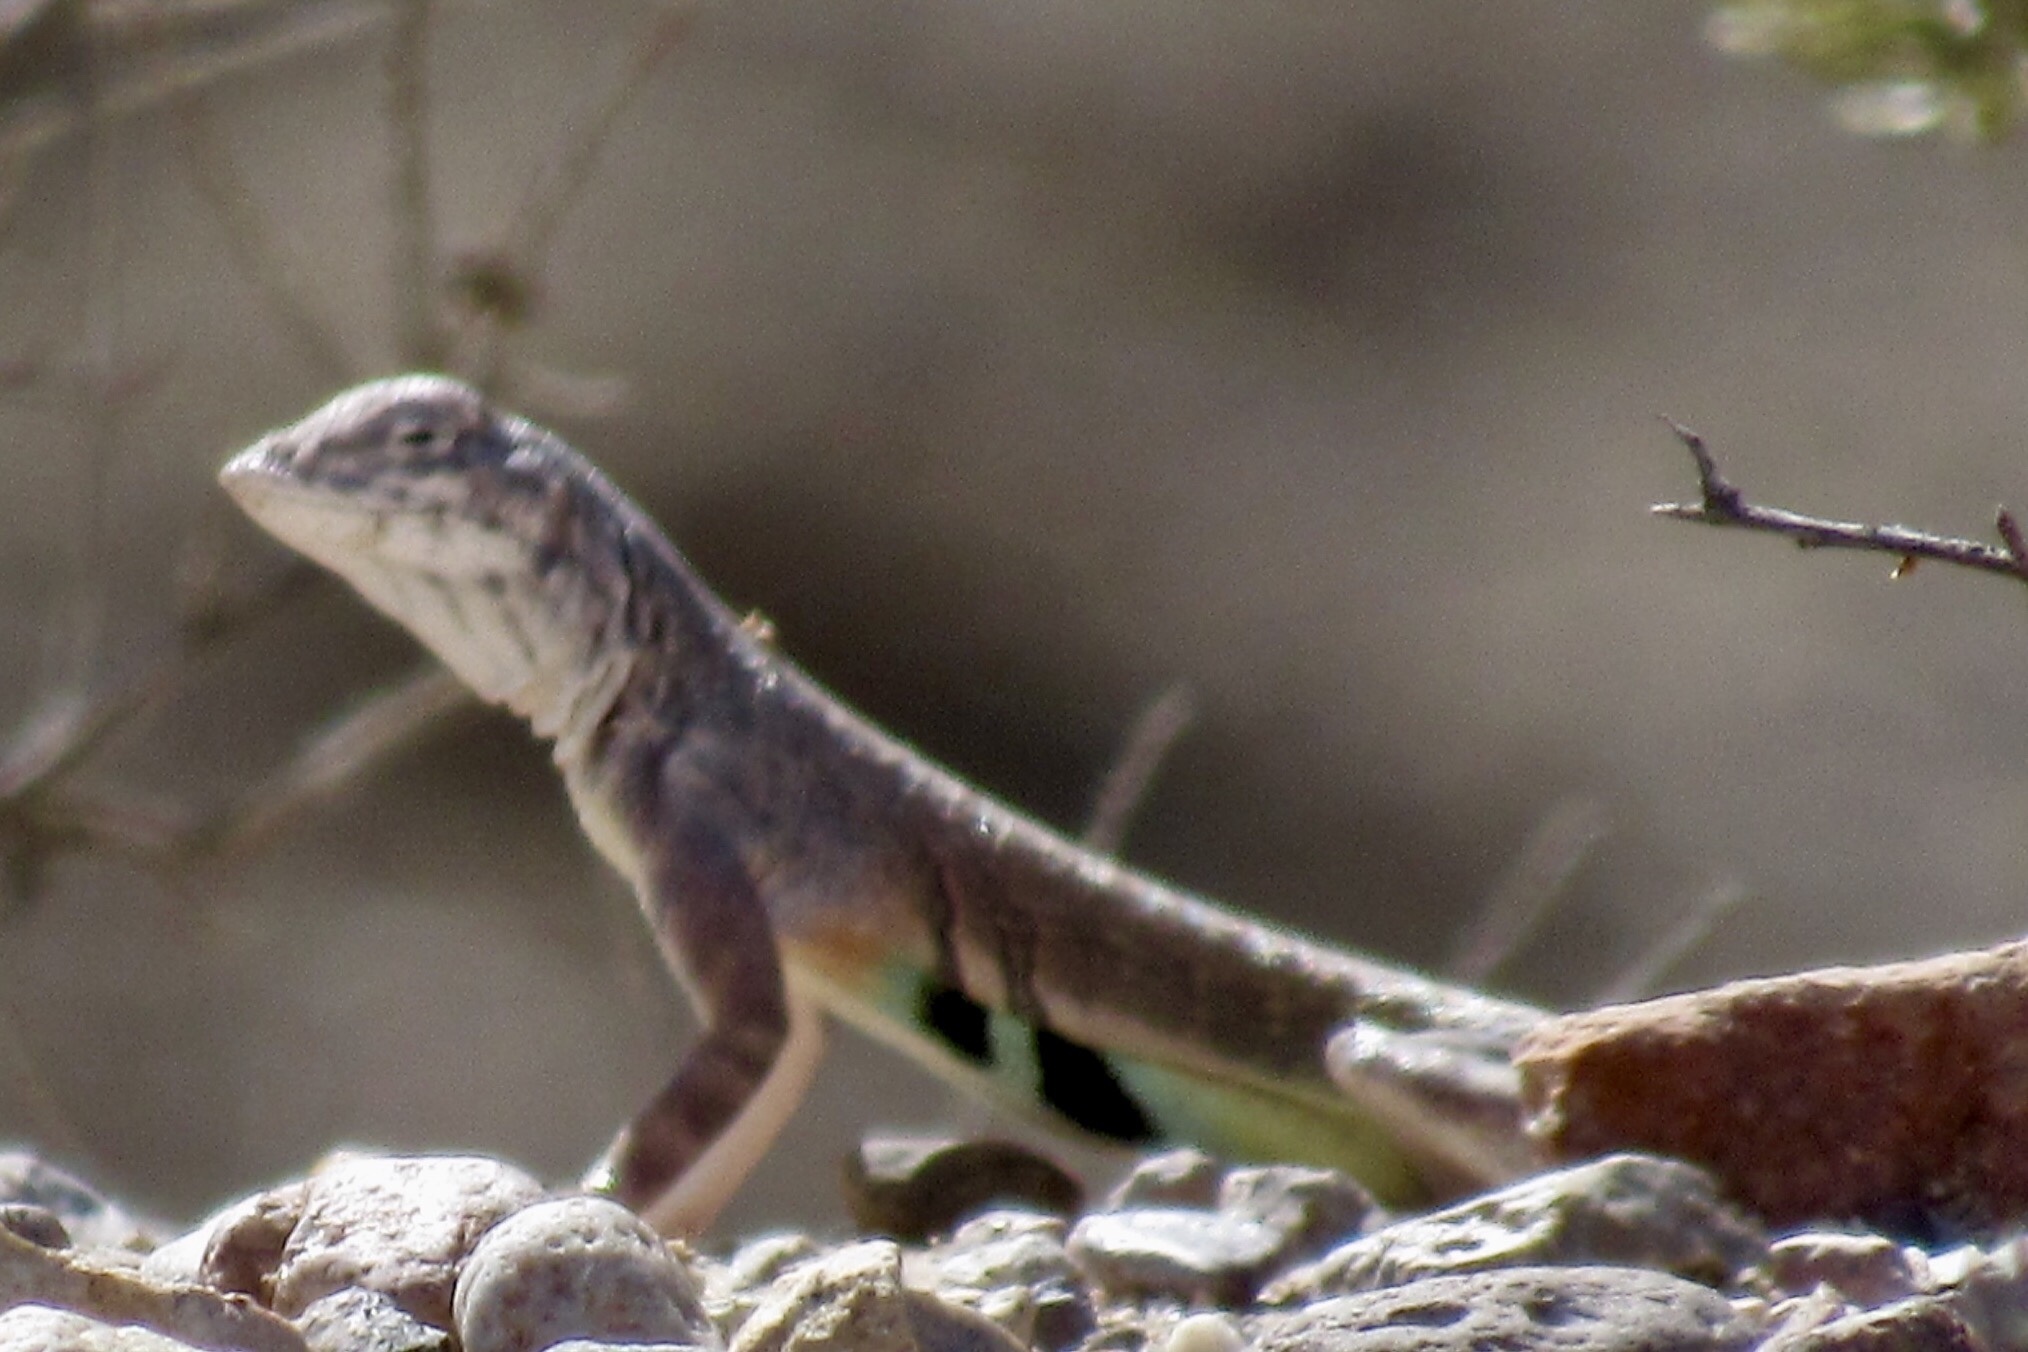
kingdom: Animalia
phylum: Chordata
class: Squamata
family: Phrynosomatidae
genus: Callisaurus
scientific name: Callisaurus draconoides
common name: Zebra-tailed lizard
